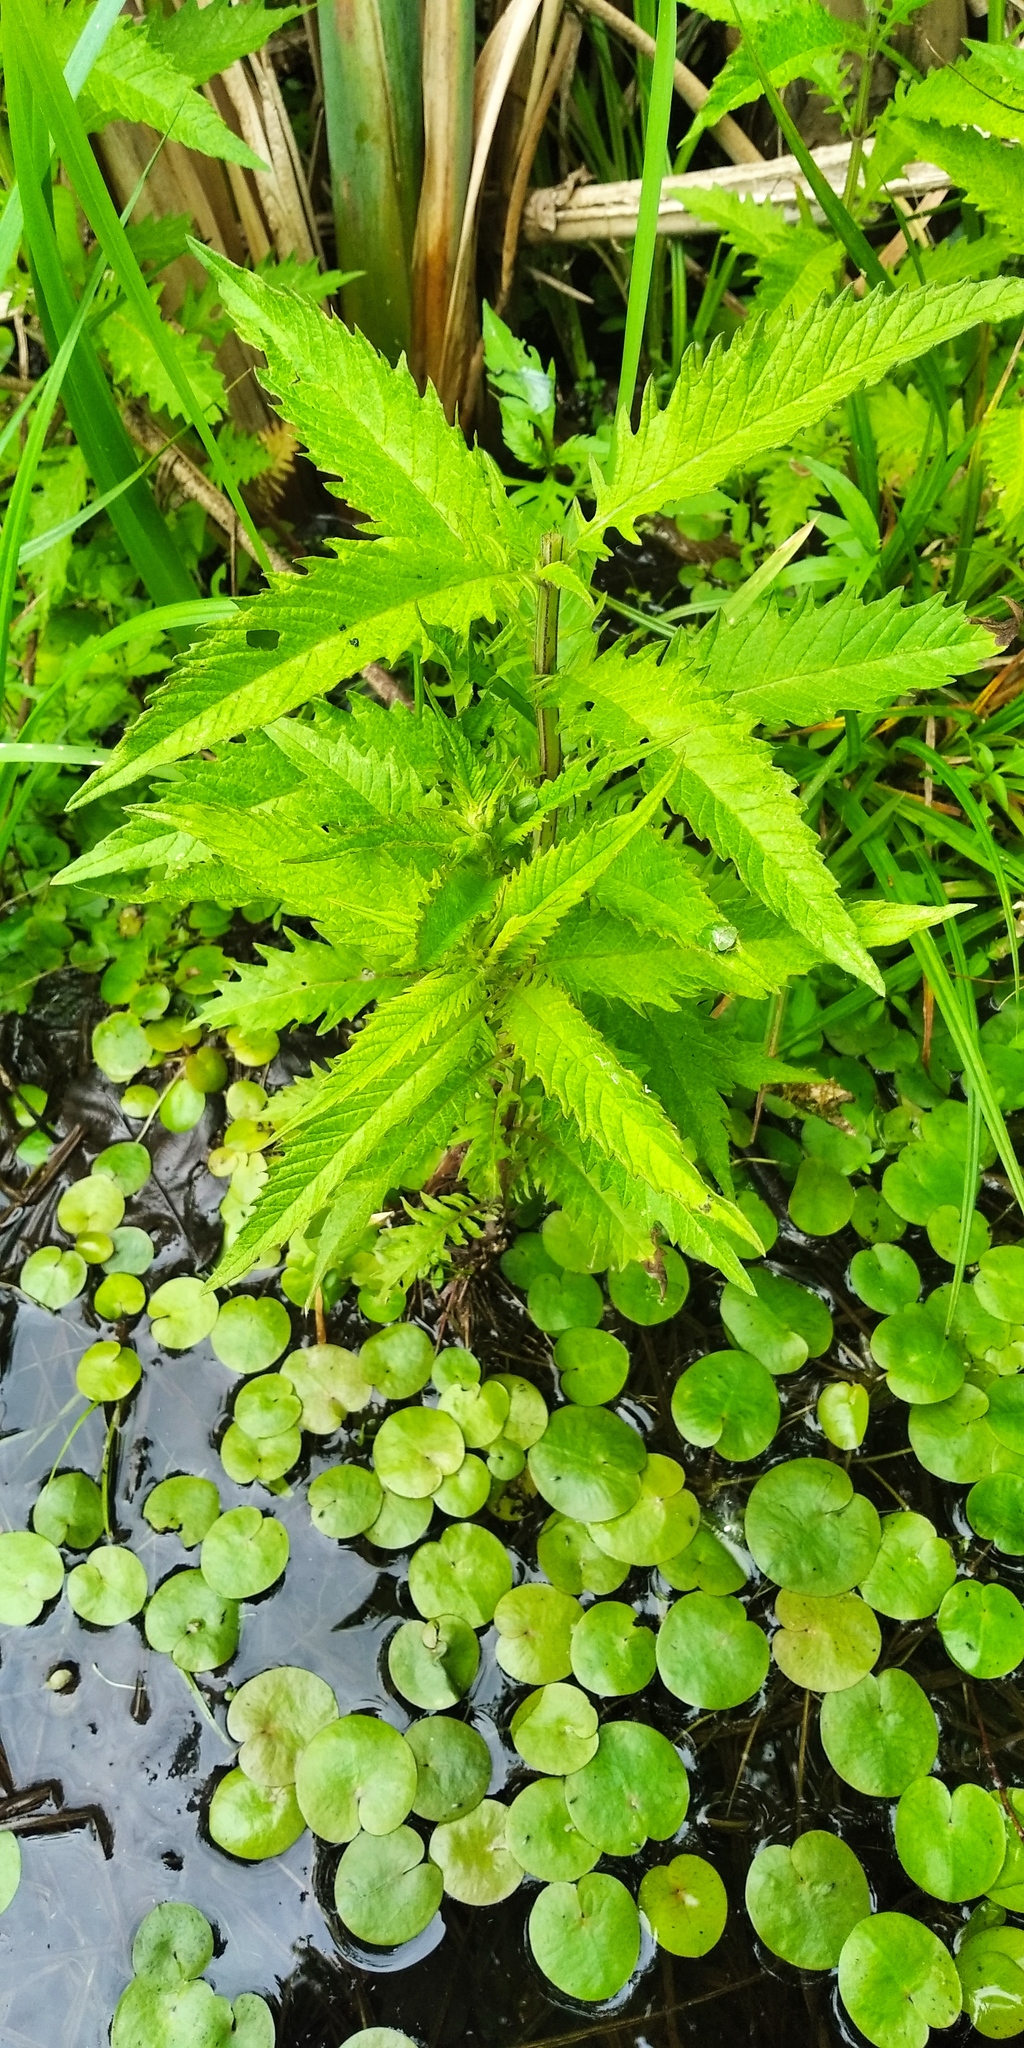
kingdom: Plantae
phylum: Tracheophyta
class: Magnoliopsida
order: Lamiales
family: Lamiaceae
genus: Lycopus
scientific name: Lycopus europaeus
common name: European bugleweed
